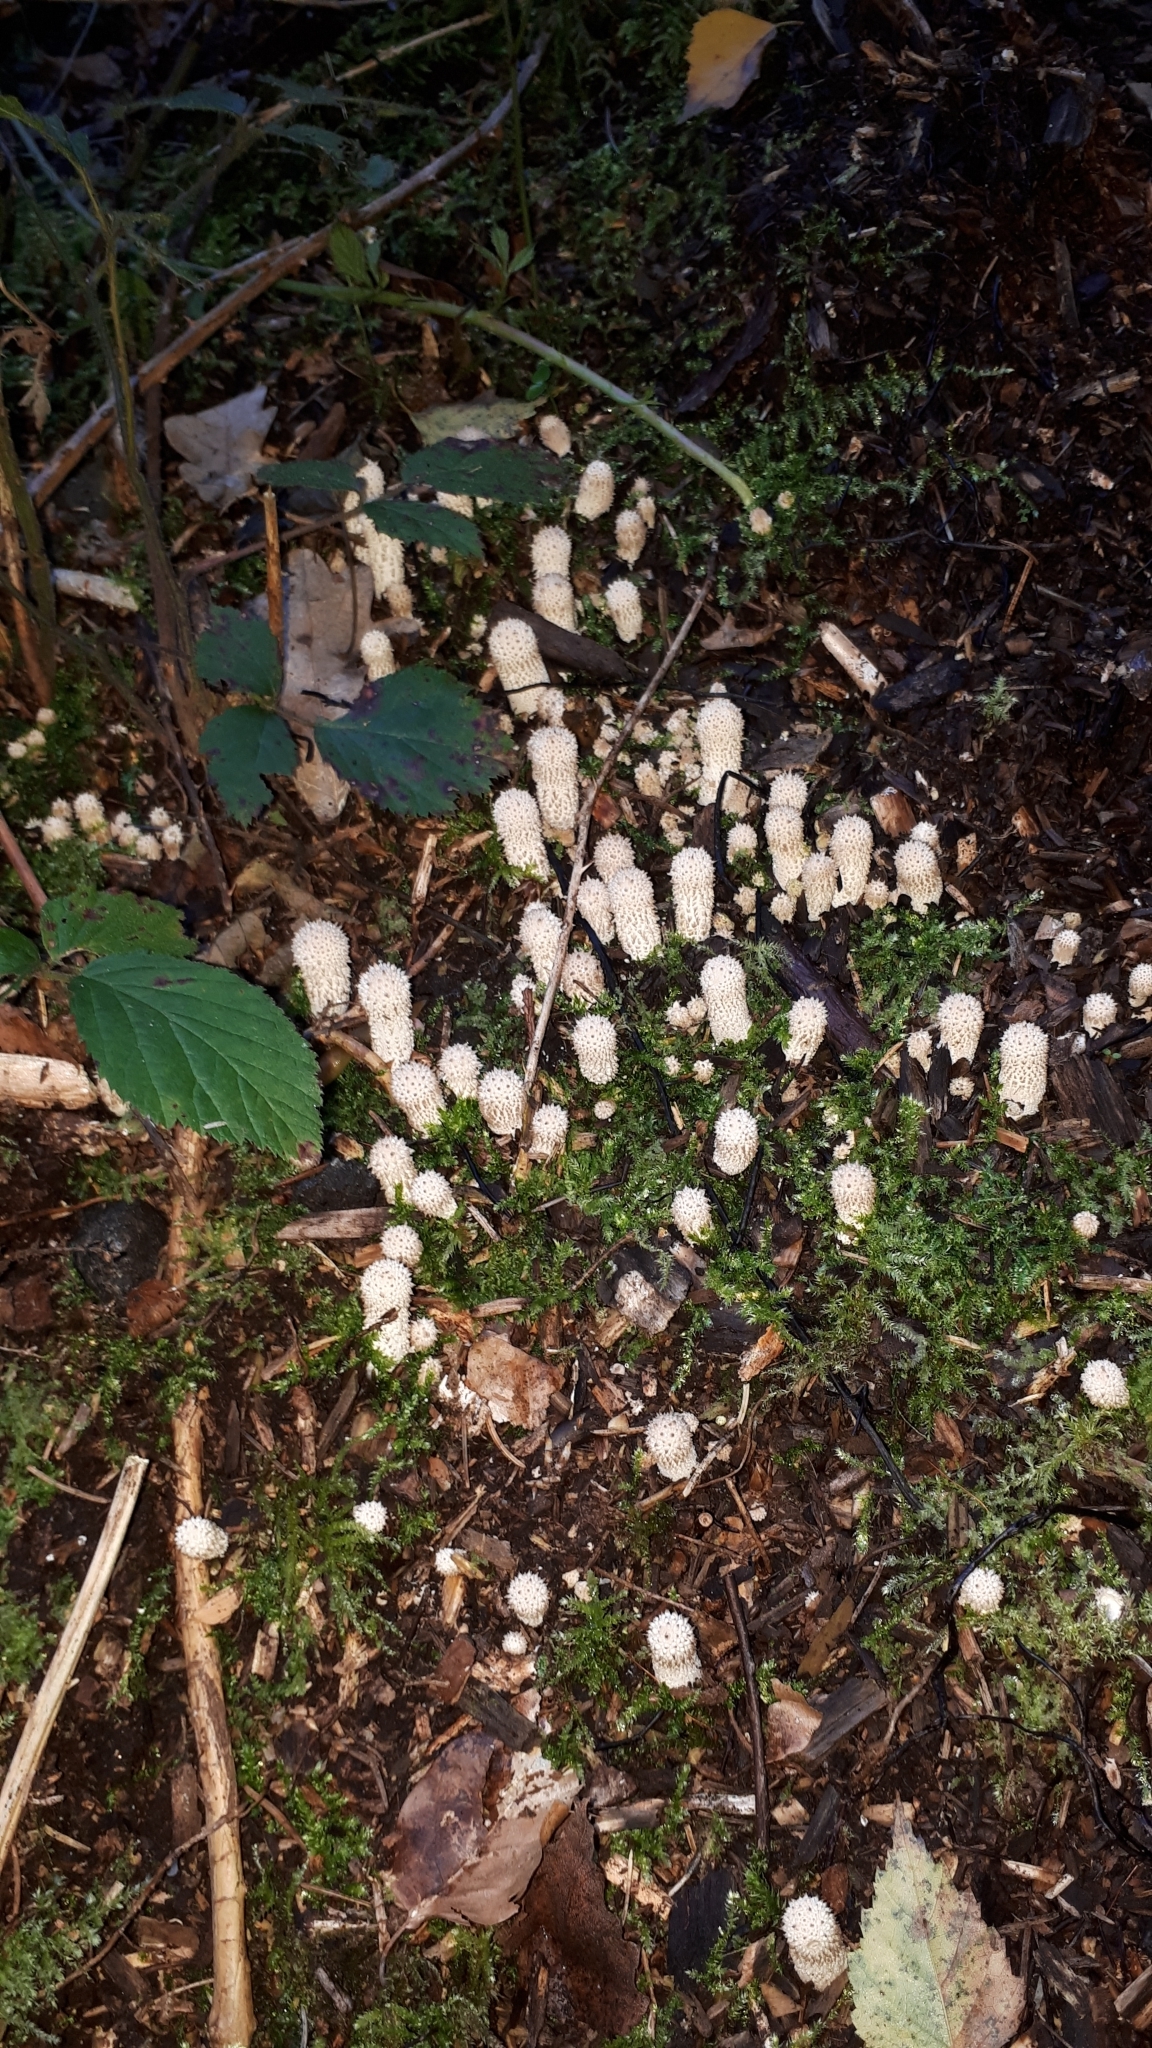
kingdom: Fungi
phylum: Basidiomycota
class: Agaricomycetes
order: Agaricales
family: Lycoperdaceae
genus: Lycoperdon
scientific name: Lycoperdon echinatum
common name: Hedgehog puffball
